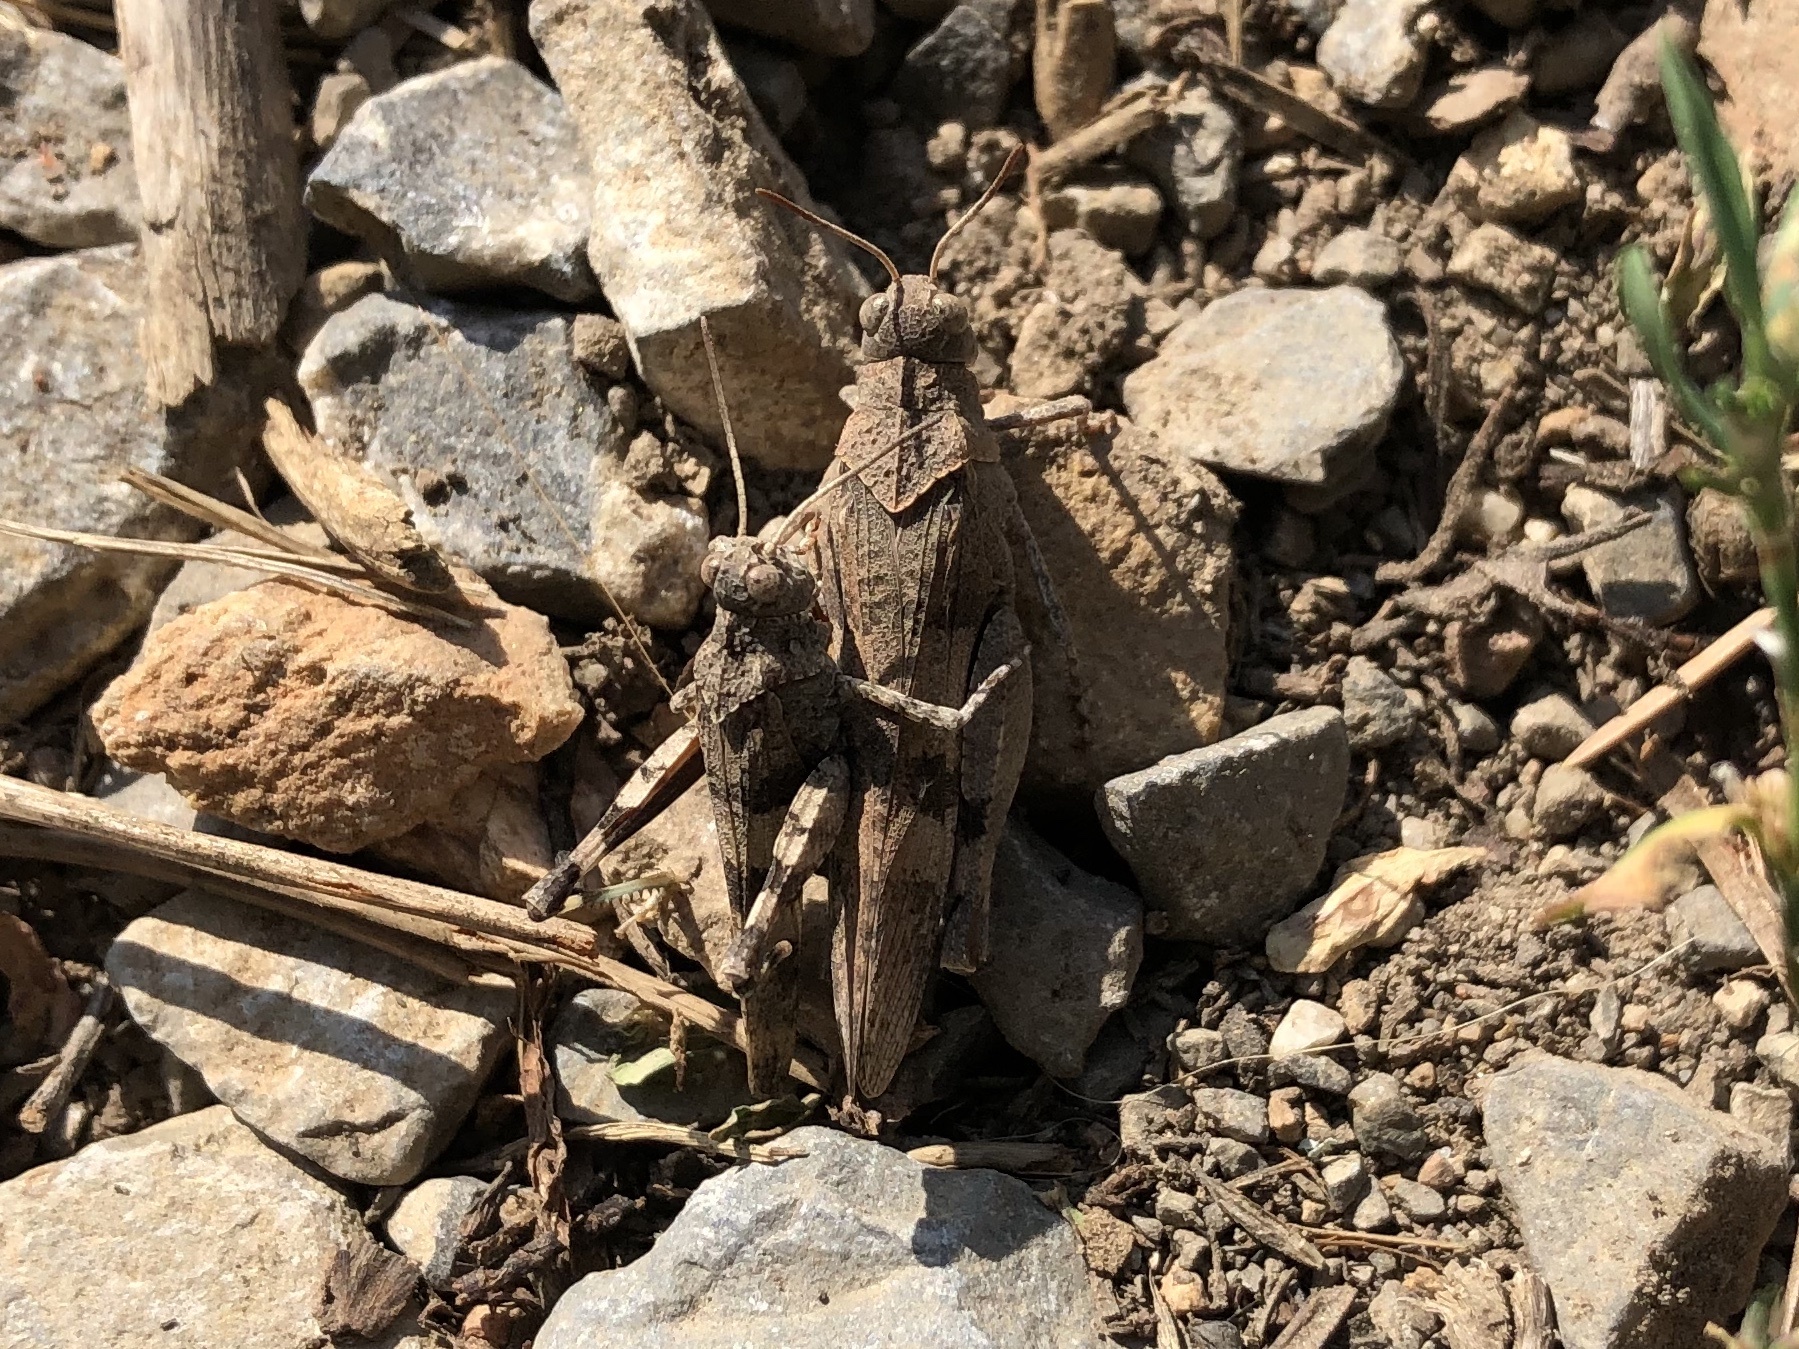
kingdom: Animalia
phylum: Arthropoda
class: Insecta
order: Orthoptera
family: Acrididae
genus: Oedipoda
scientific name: Oedipoda caerulescens
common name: Blue-winged grasshopper
